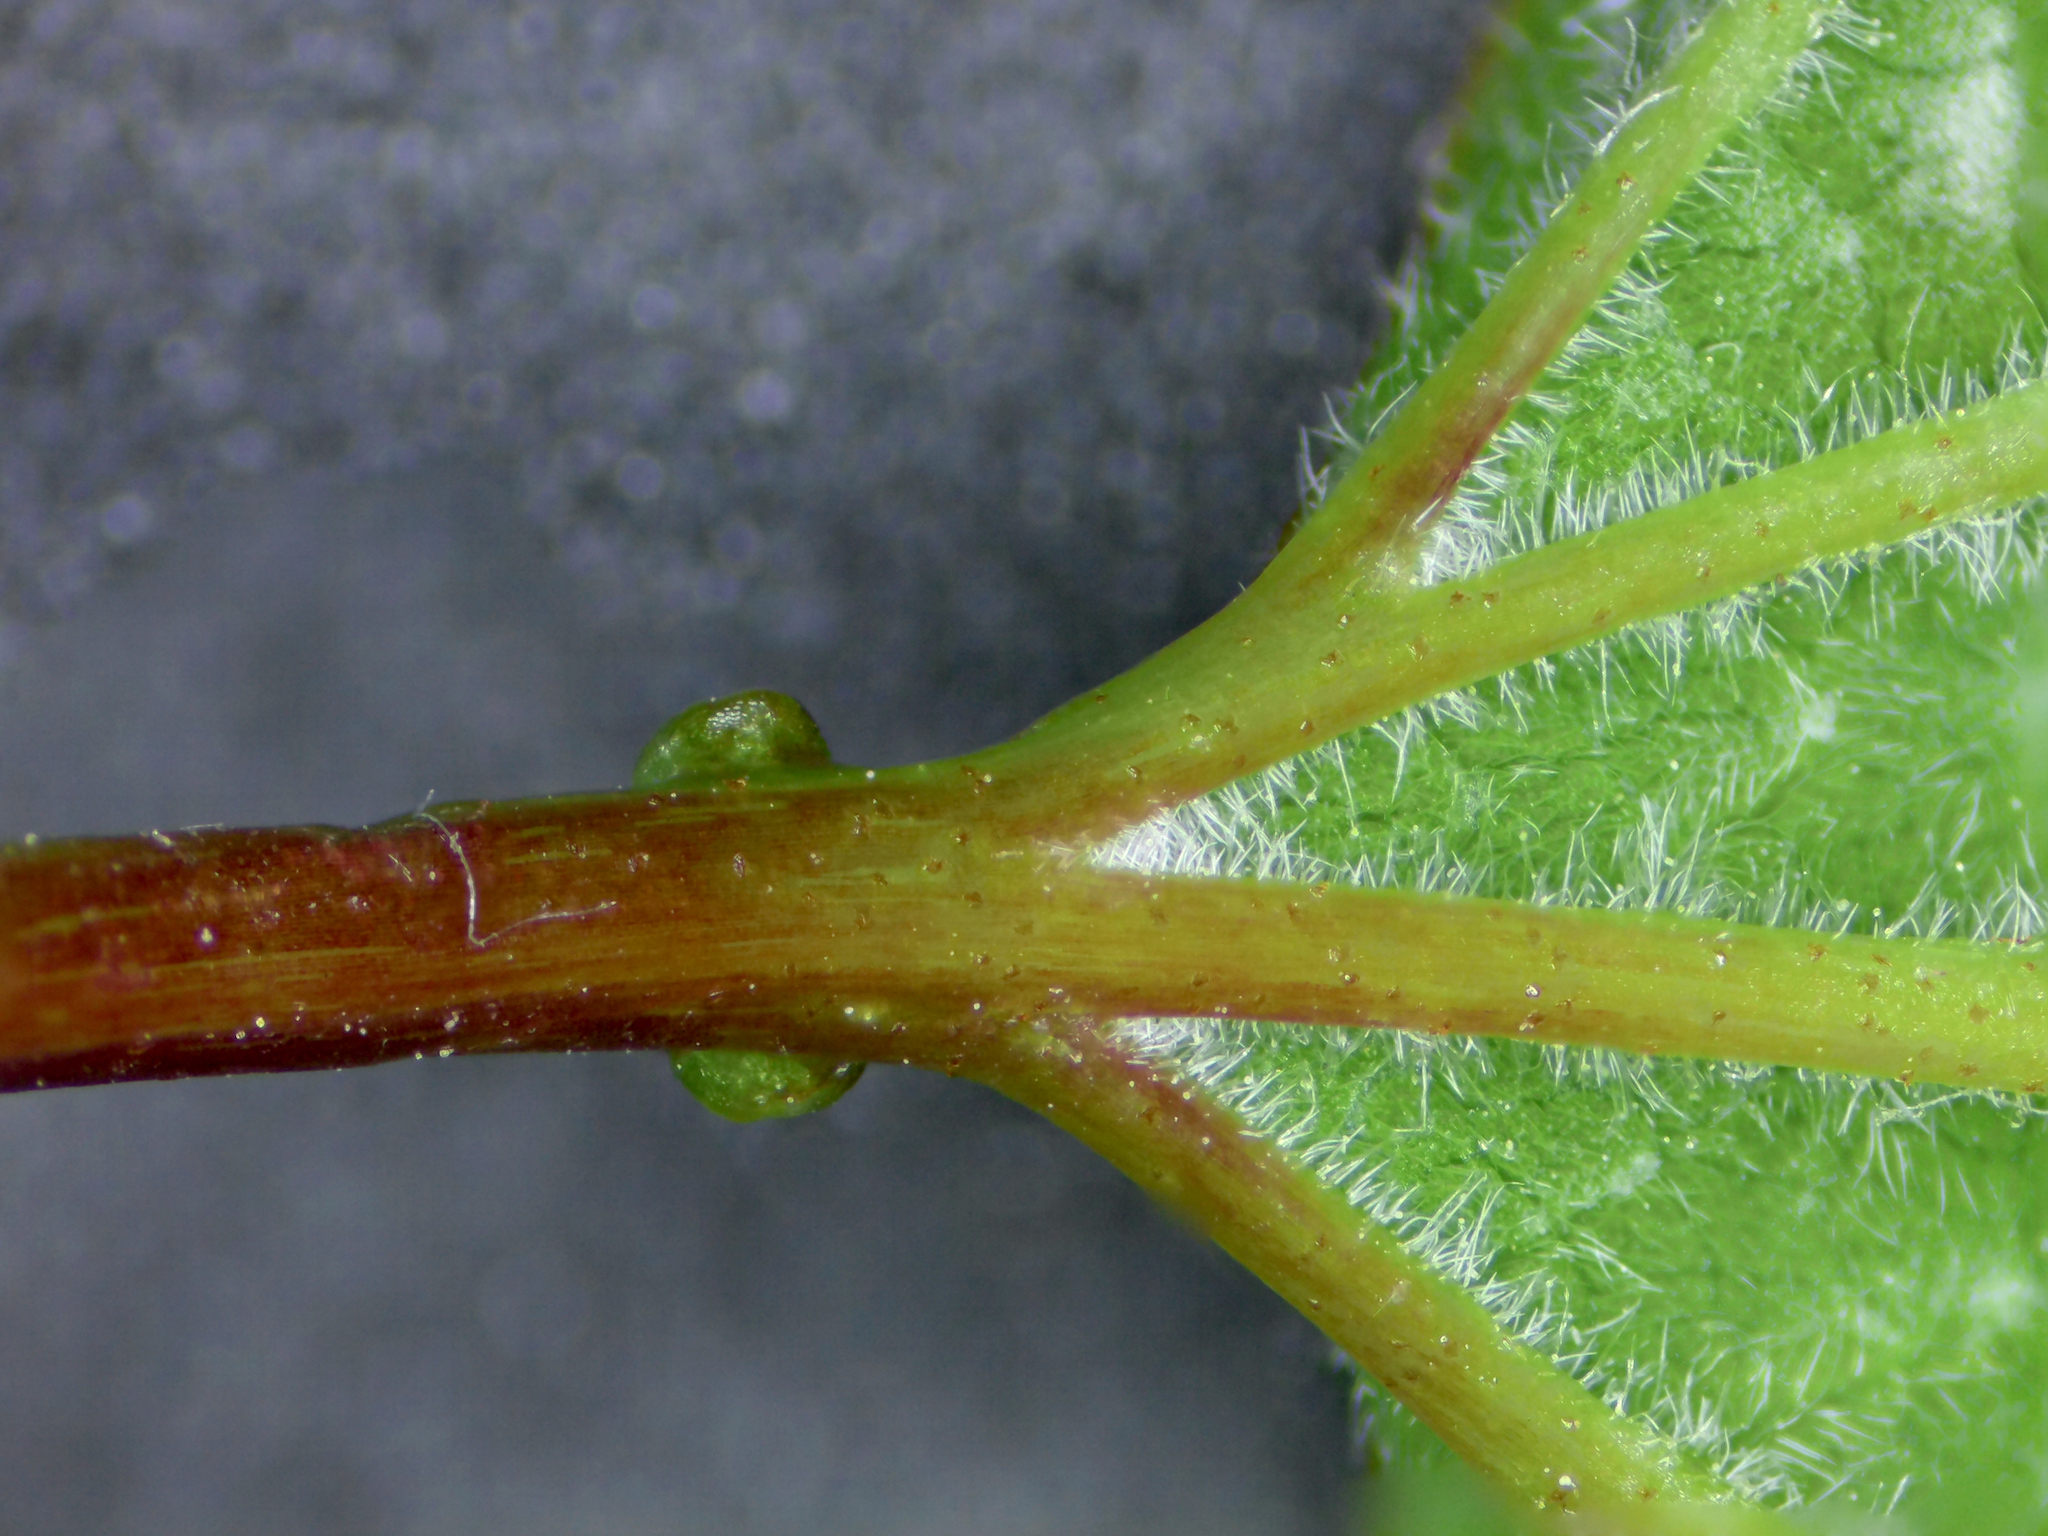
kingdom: Plantae
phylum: Tracheophyta
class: Magnoliopsida
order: Dipsacales
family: Viburnaceae
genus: Viburnum
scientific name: Viburnum opulus
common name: Guelder-rose
